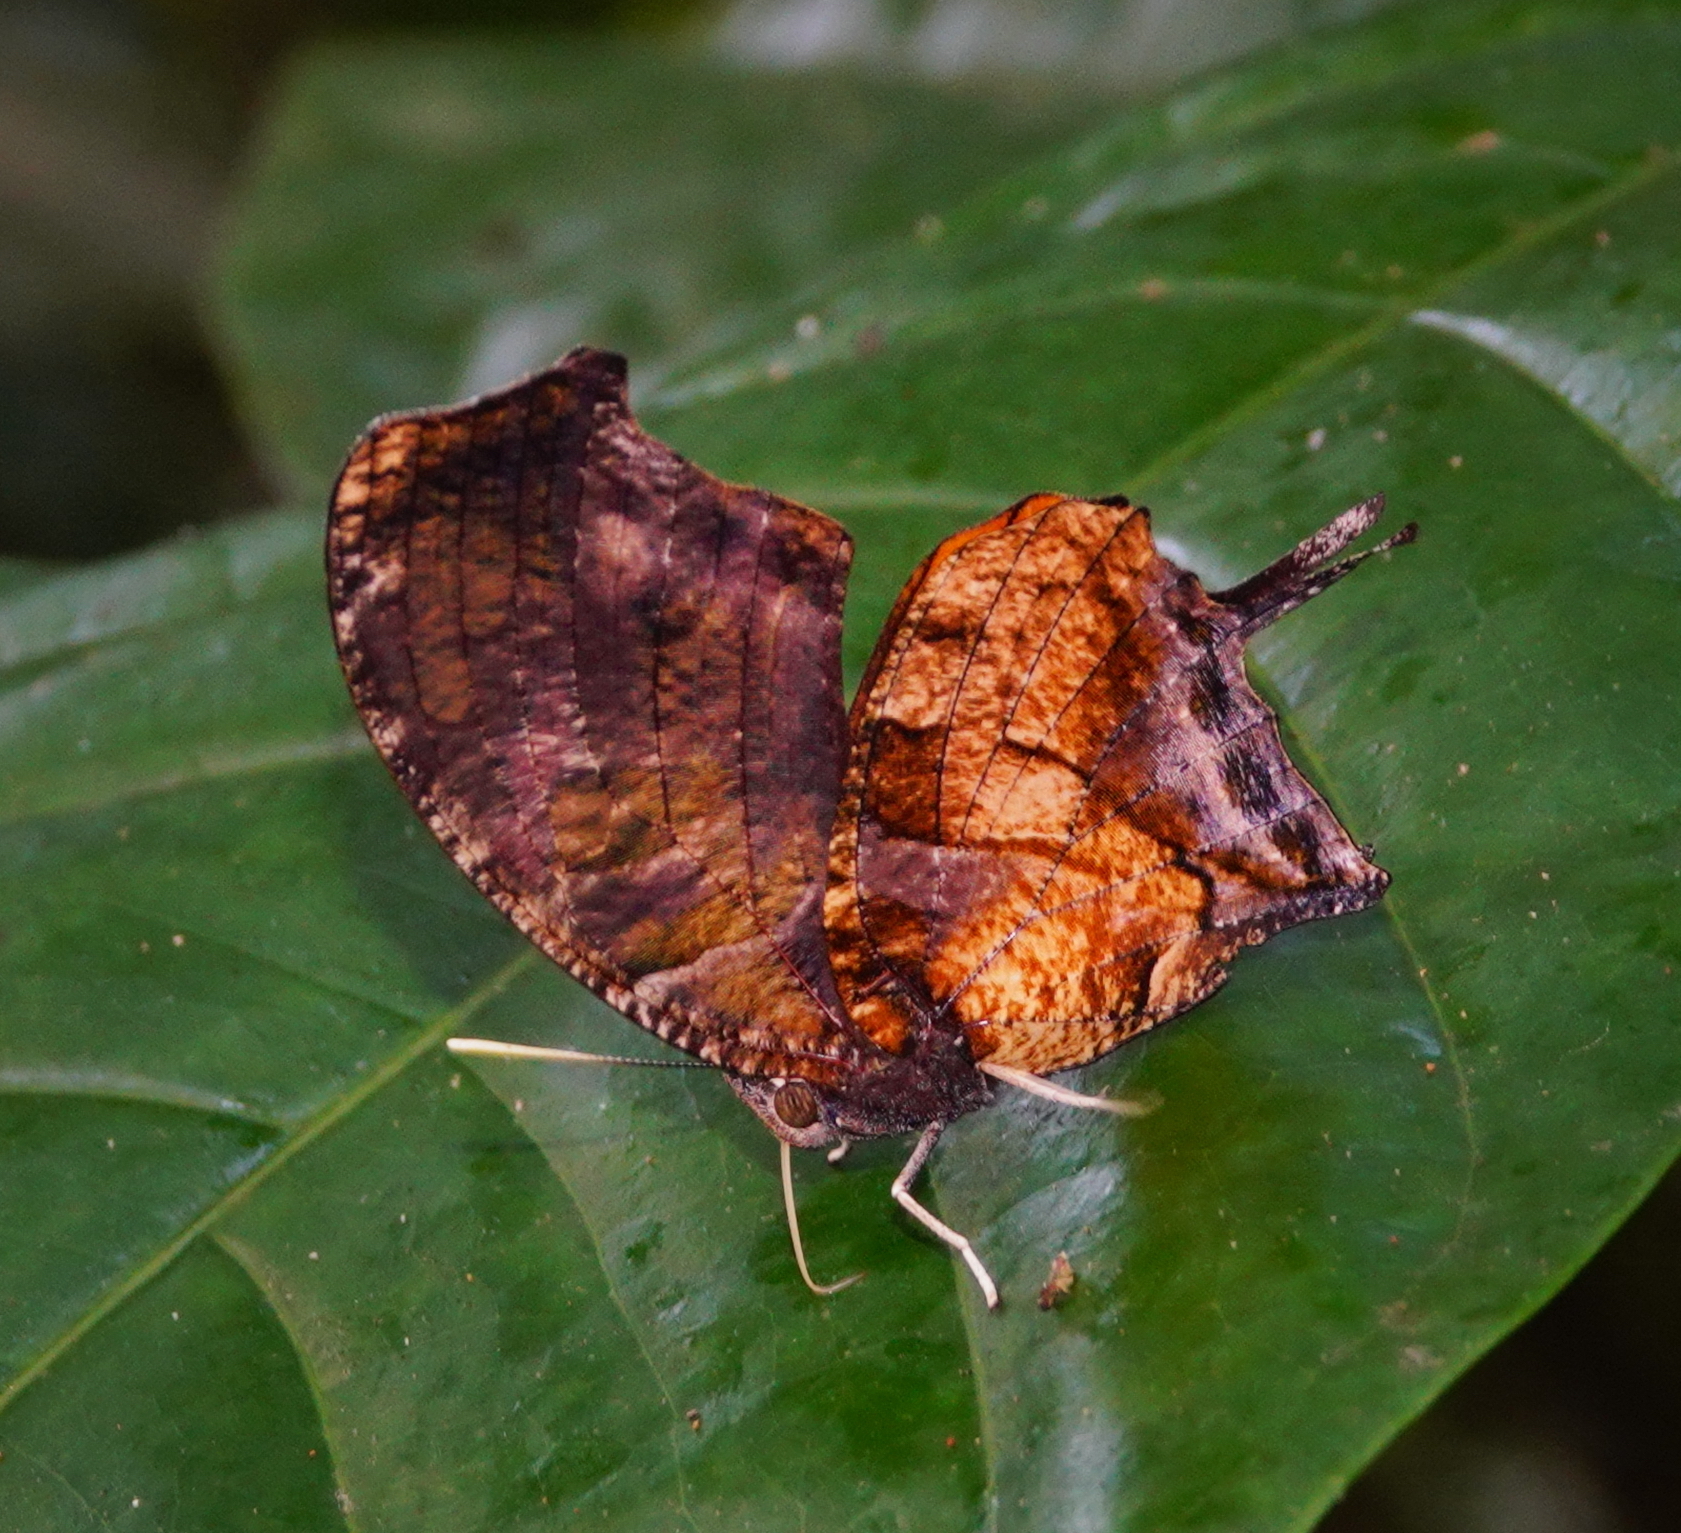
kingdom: Animalia
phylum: Arthropoda
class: Insecta
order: Lepidoptera
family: Nymphalidae
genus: Consul
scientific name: Consul fabius
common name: Tiger leafwing
